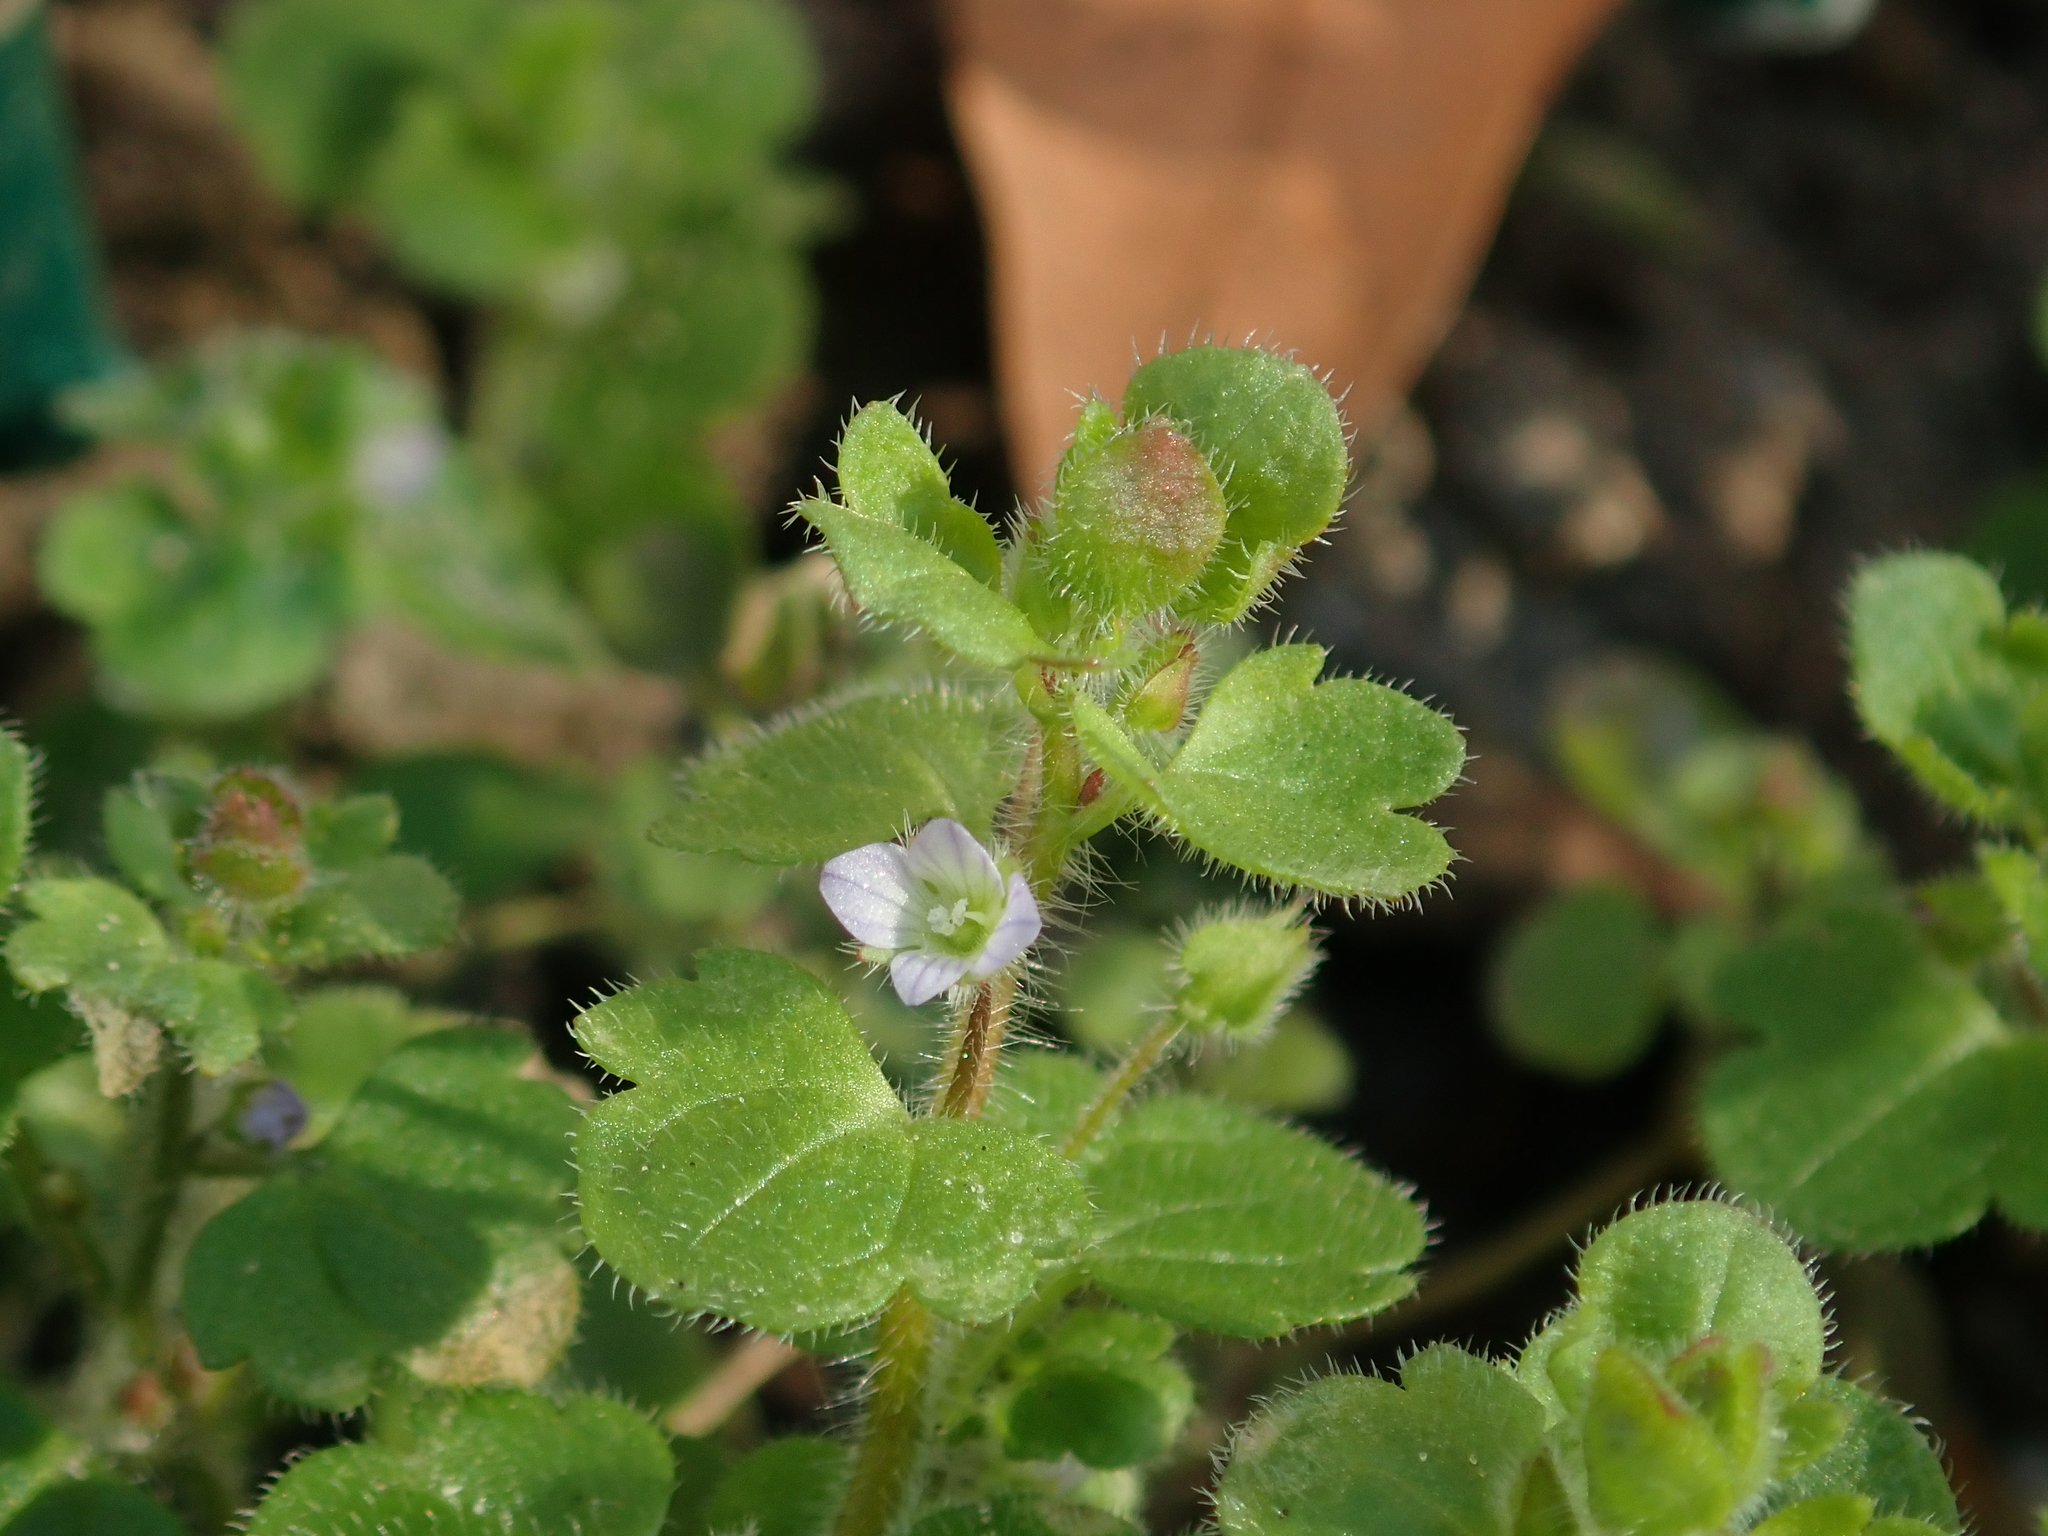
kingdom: Plantae
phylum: Tracheophyta
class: Magnoliopsida
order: Lamiales
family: Plantaginaceae
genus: Veronica
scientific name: Veronica sublobata
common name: False ivy-leaved speedwell
